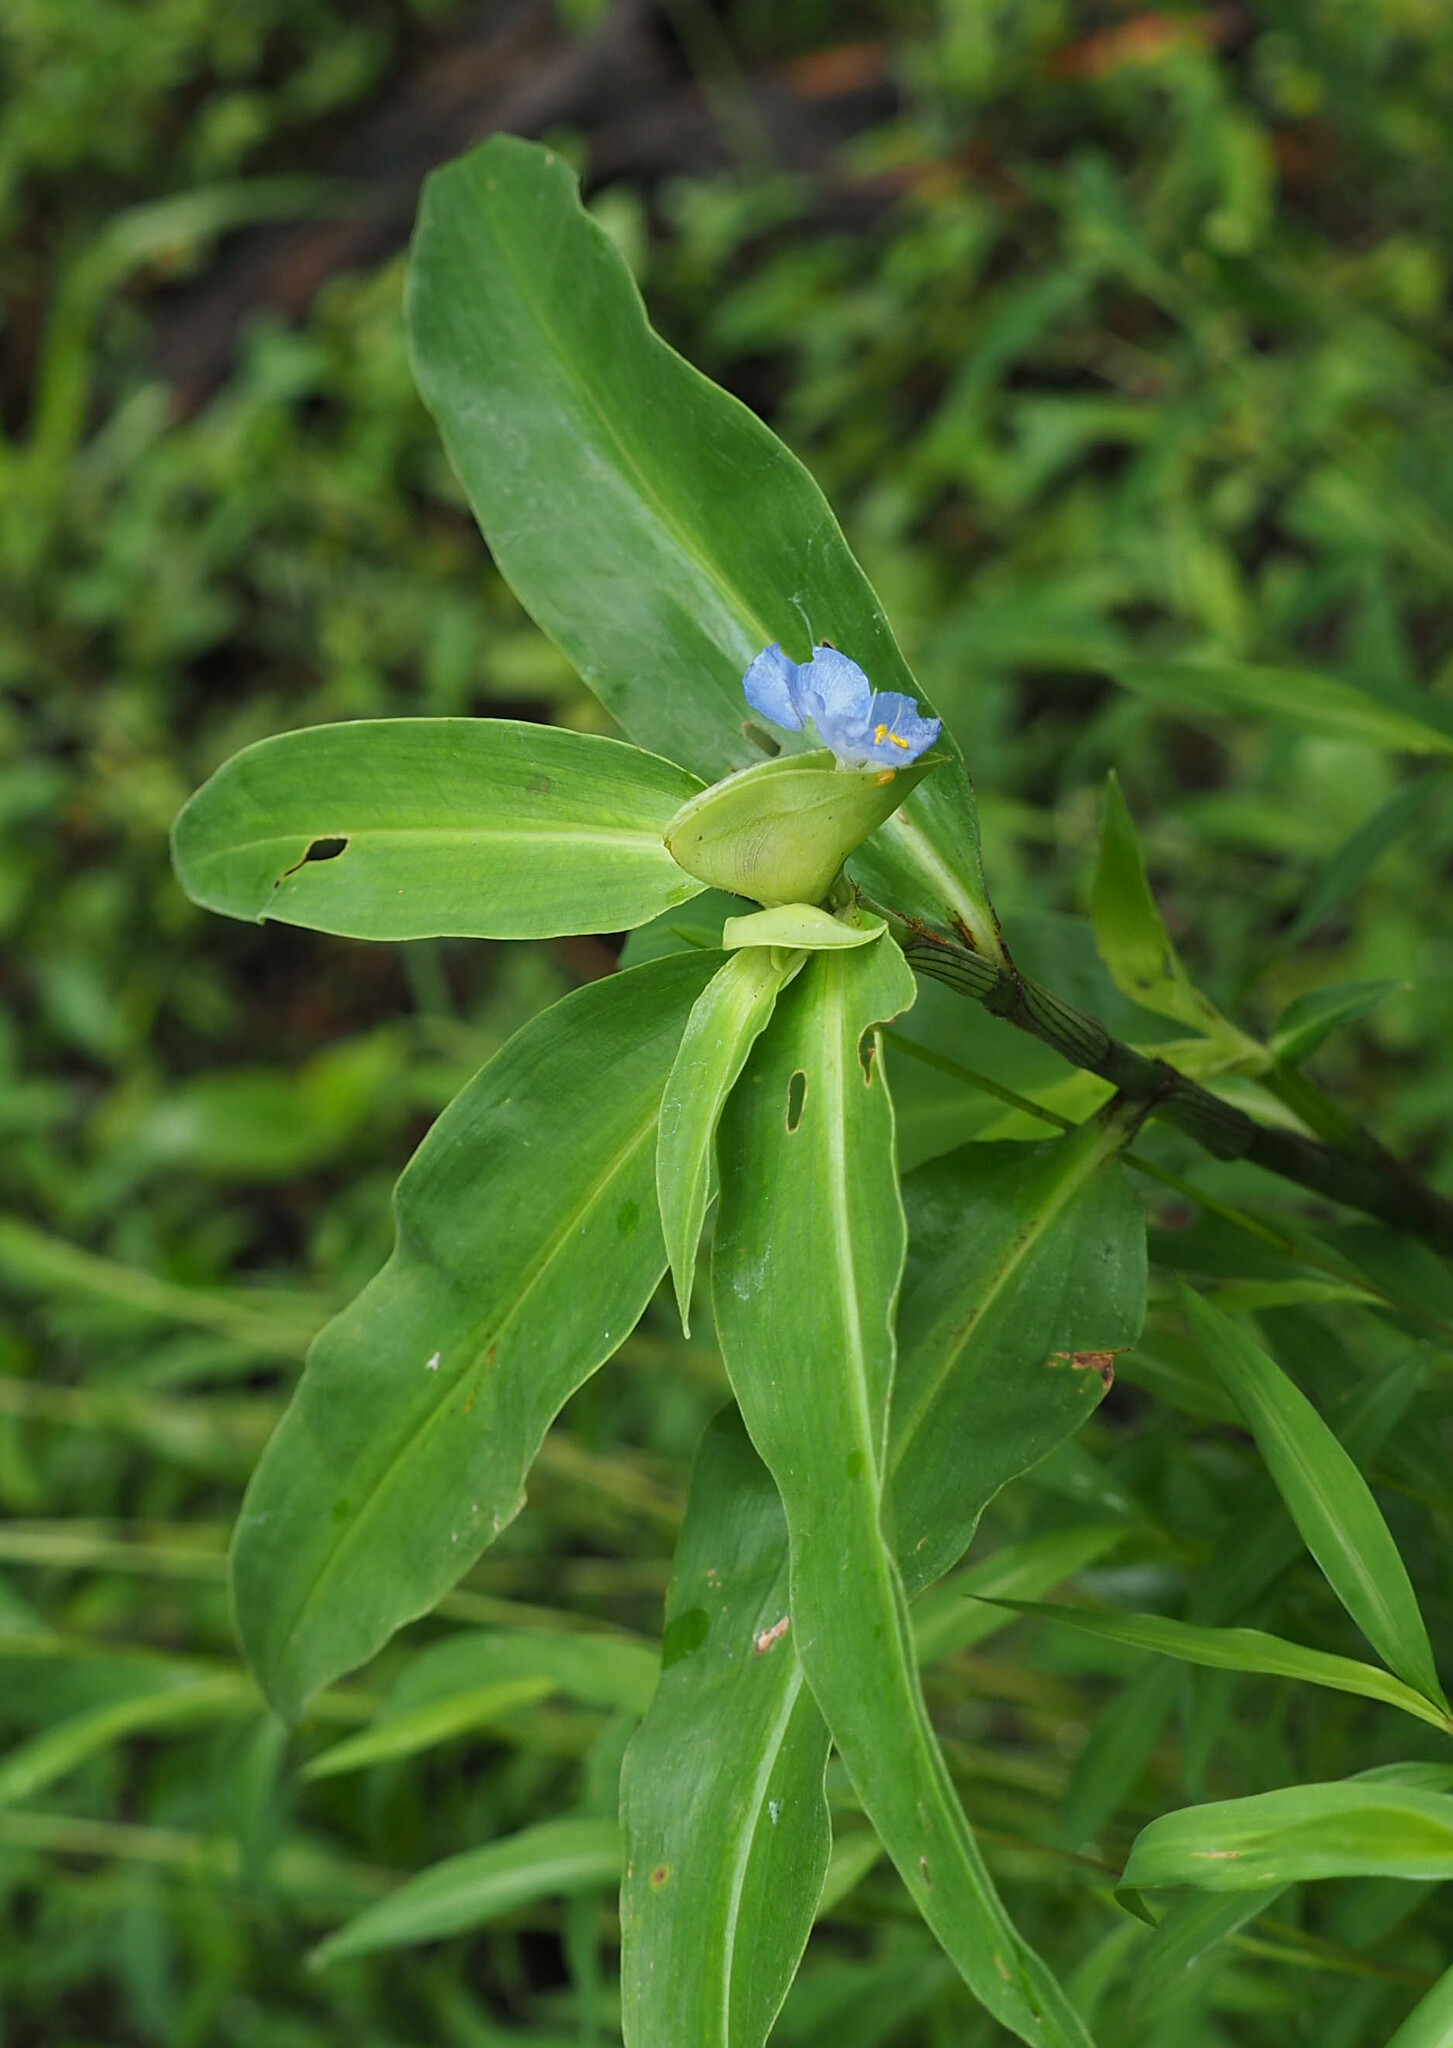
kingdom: Plantae
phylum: Tracheophyta
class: Liliopsida
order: Commelinales
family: Commelinaceae
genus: Commelina
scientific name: Commelina virginica
